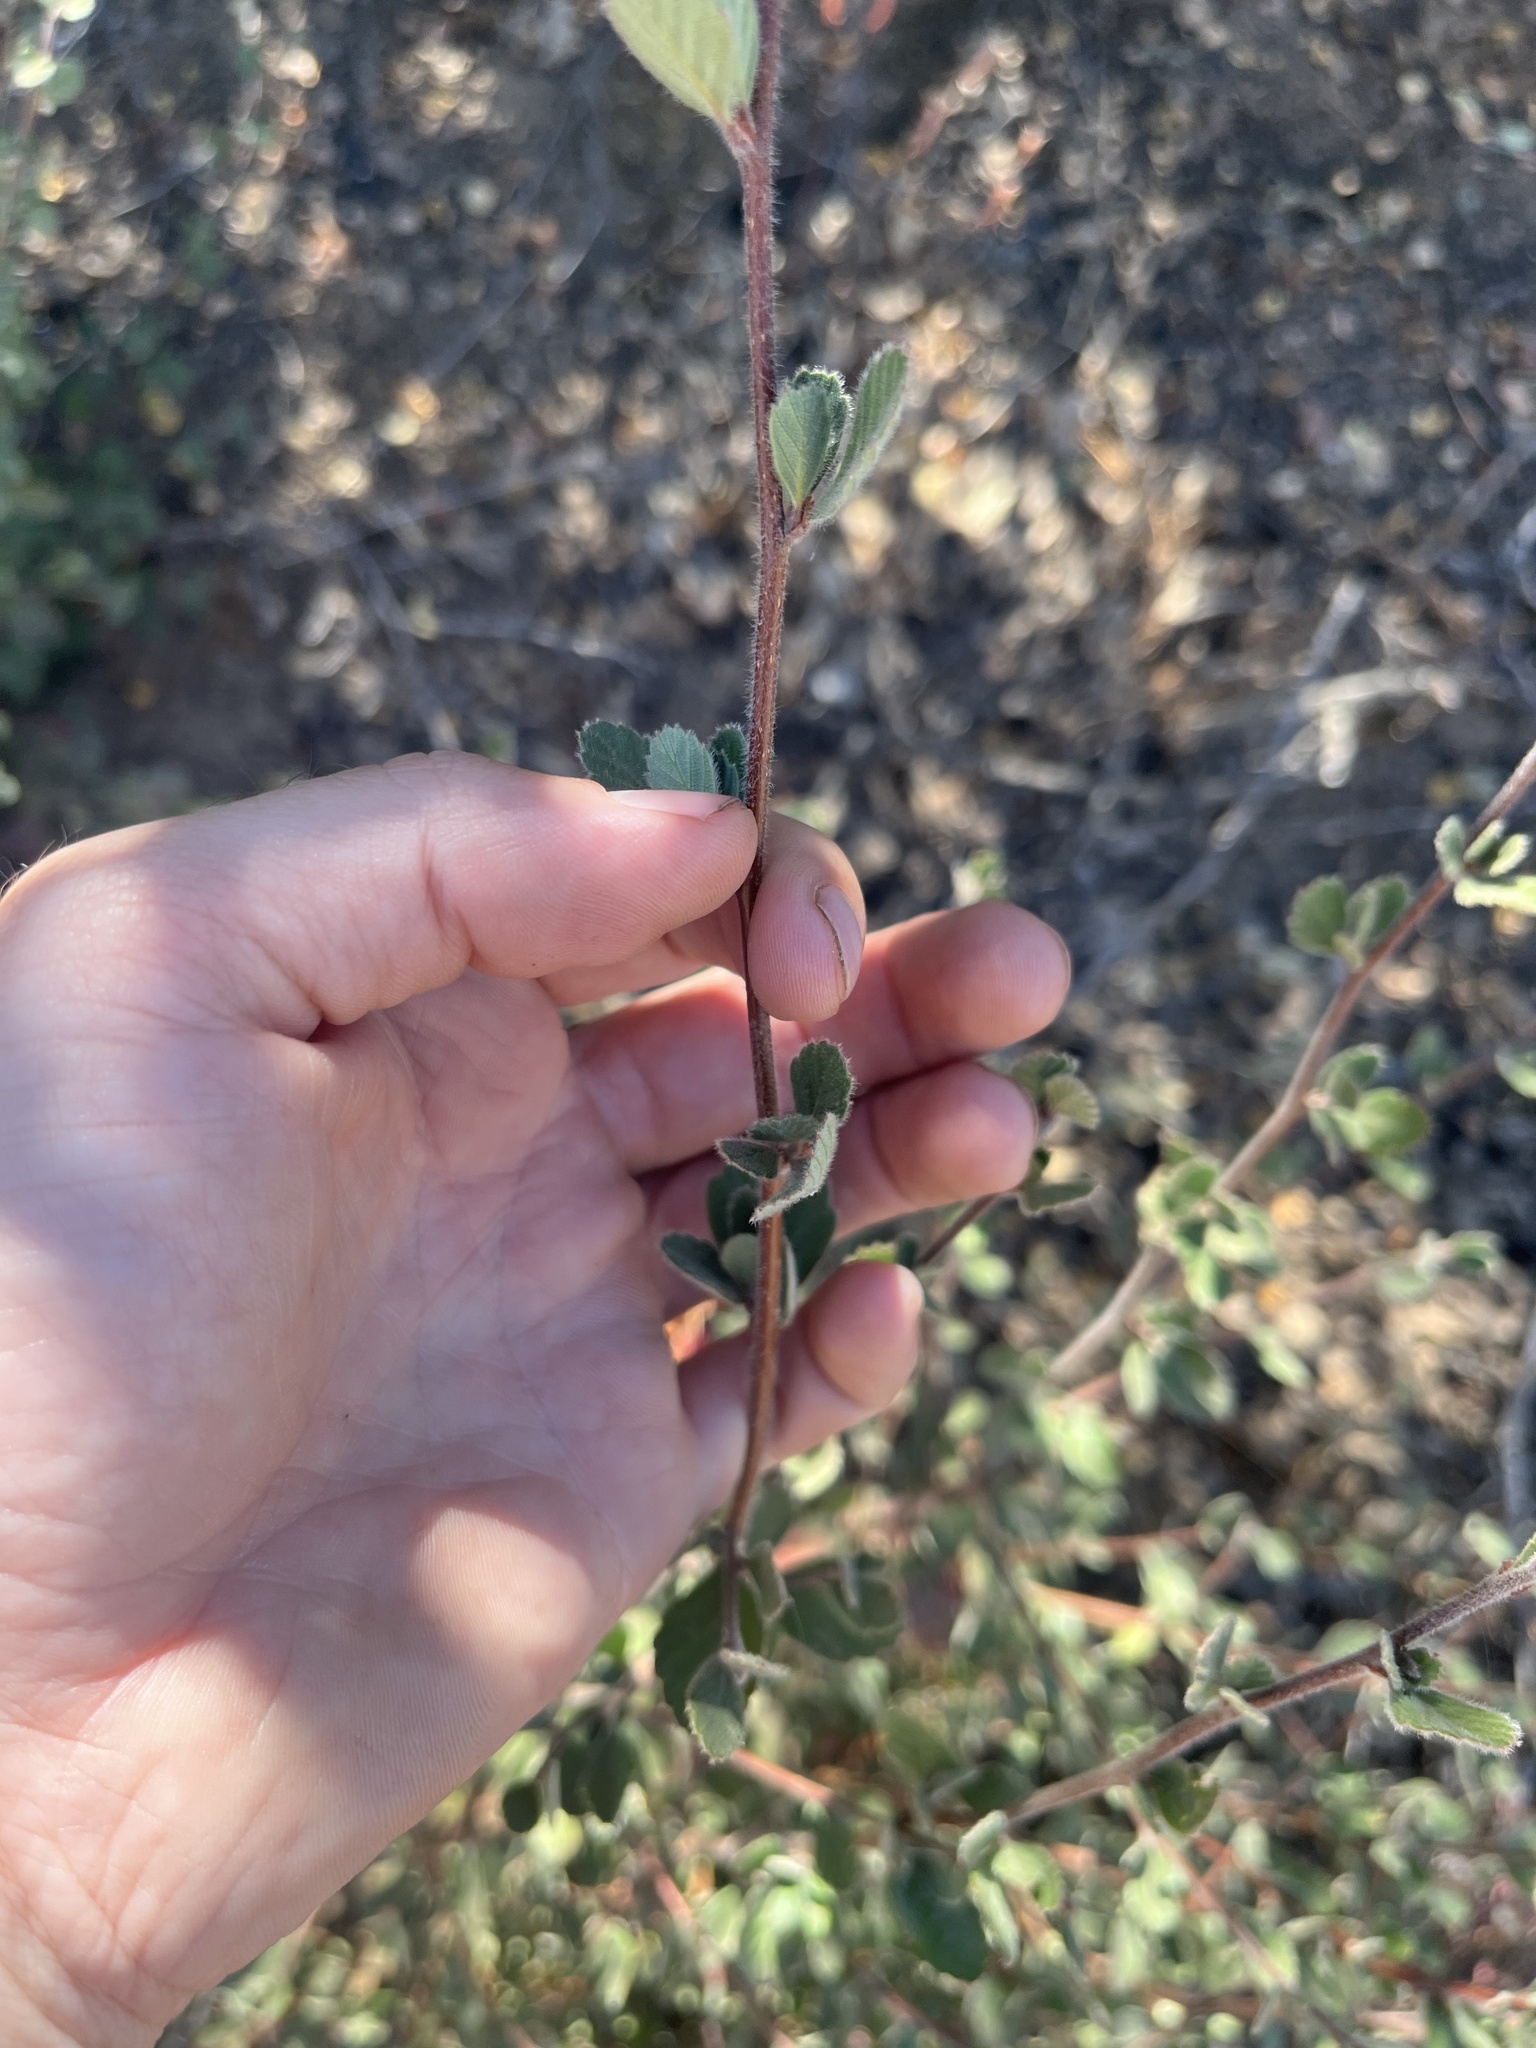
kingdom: Plantae
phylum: Tracheophyta
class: Magnoliopsida
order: Rosales
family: Rosaceae
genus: Cercocarpus
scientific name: Cercocarpus betuloides
